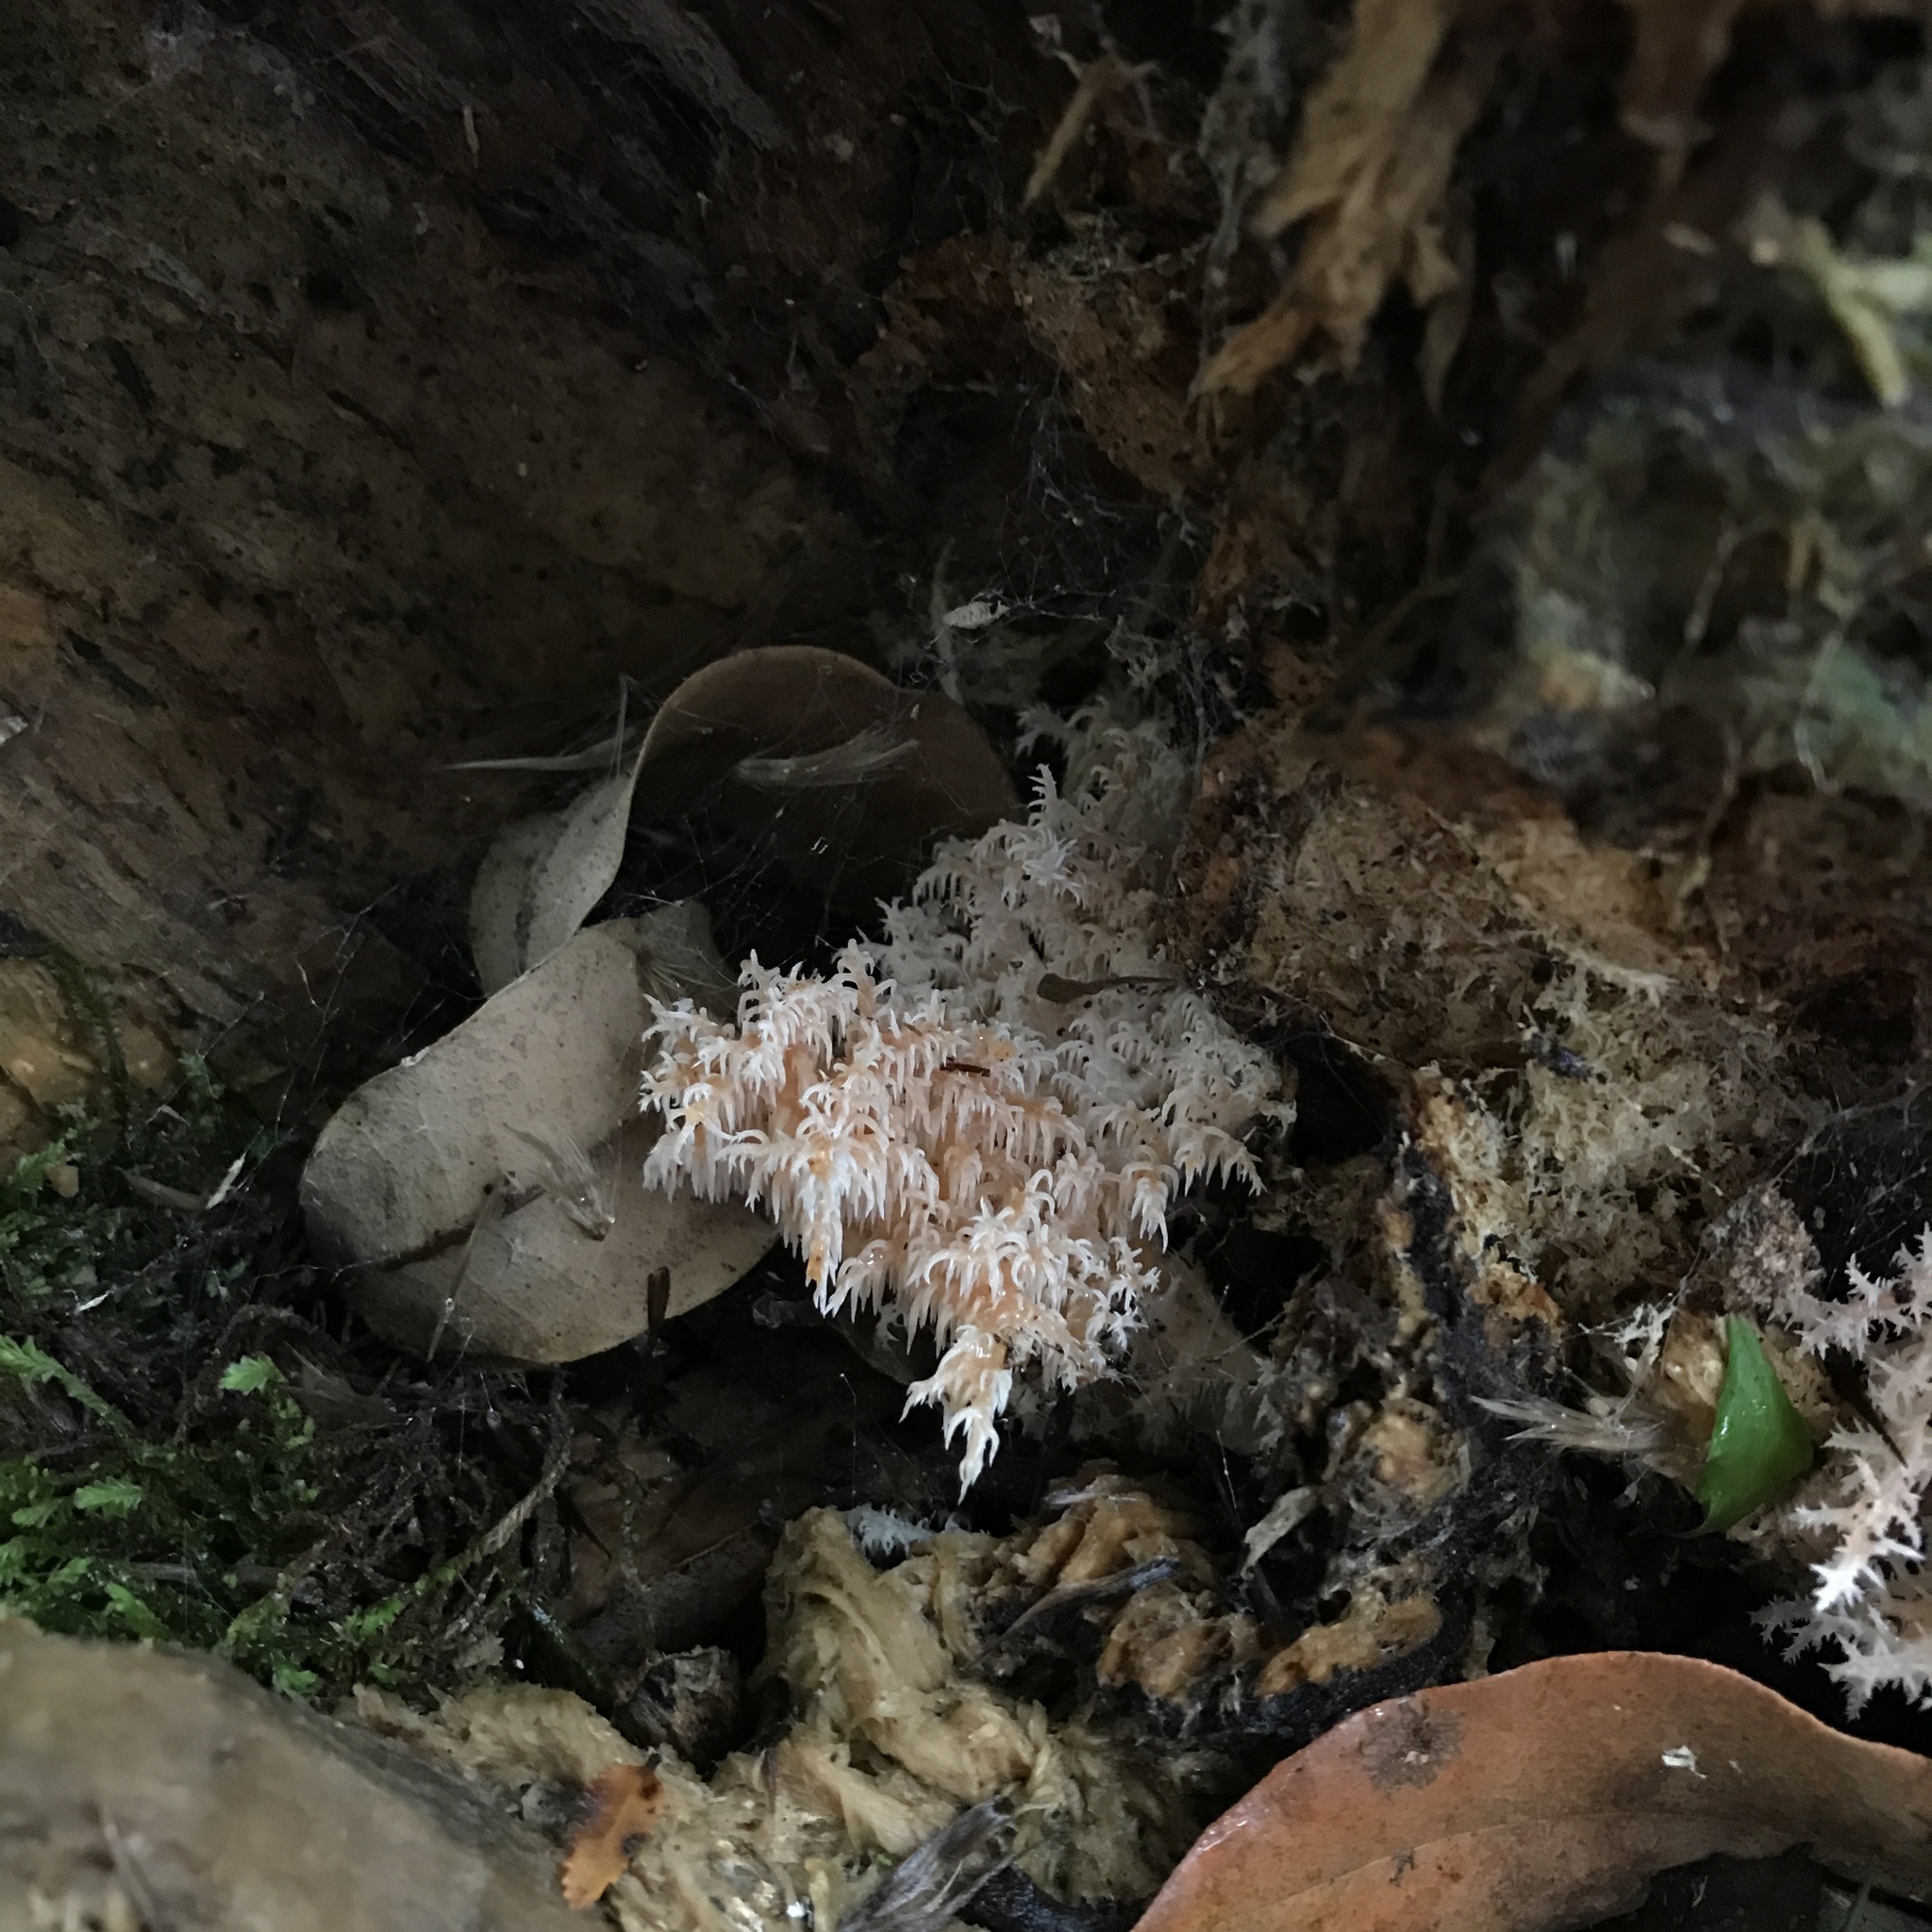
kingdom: Fungi
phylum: Basidiomycota
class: Agaricomycetes
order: Russulales
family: Hericiaceae
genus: Hericium
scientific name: Hericium coralloides
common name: Coral tooth
